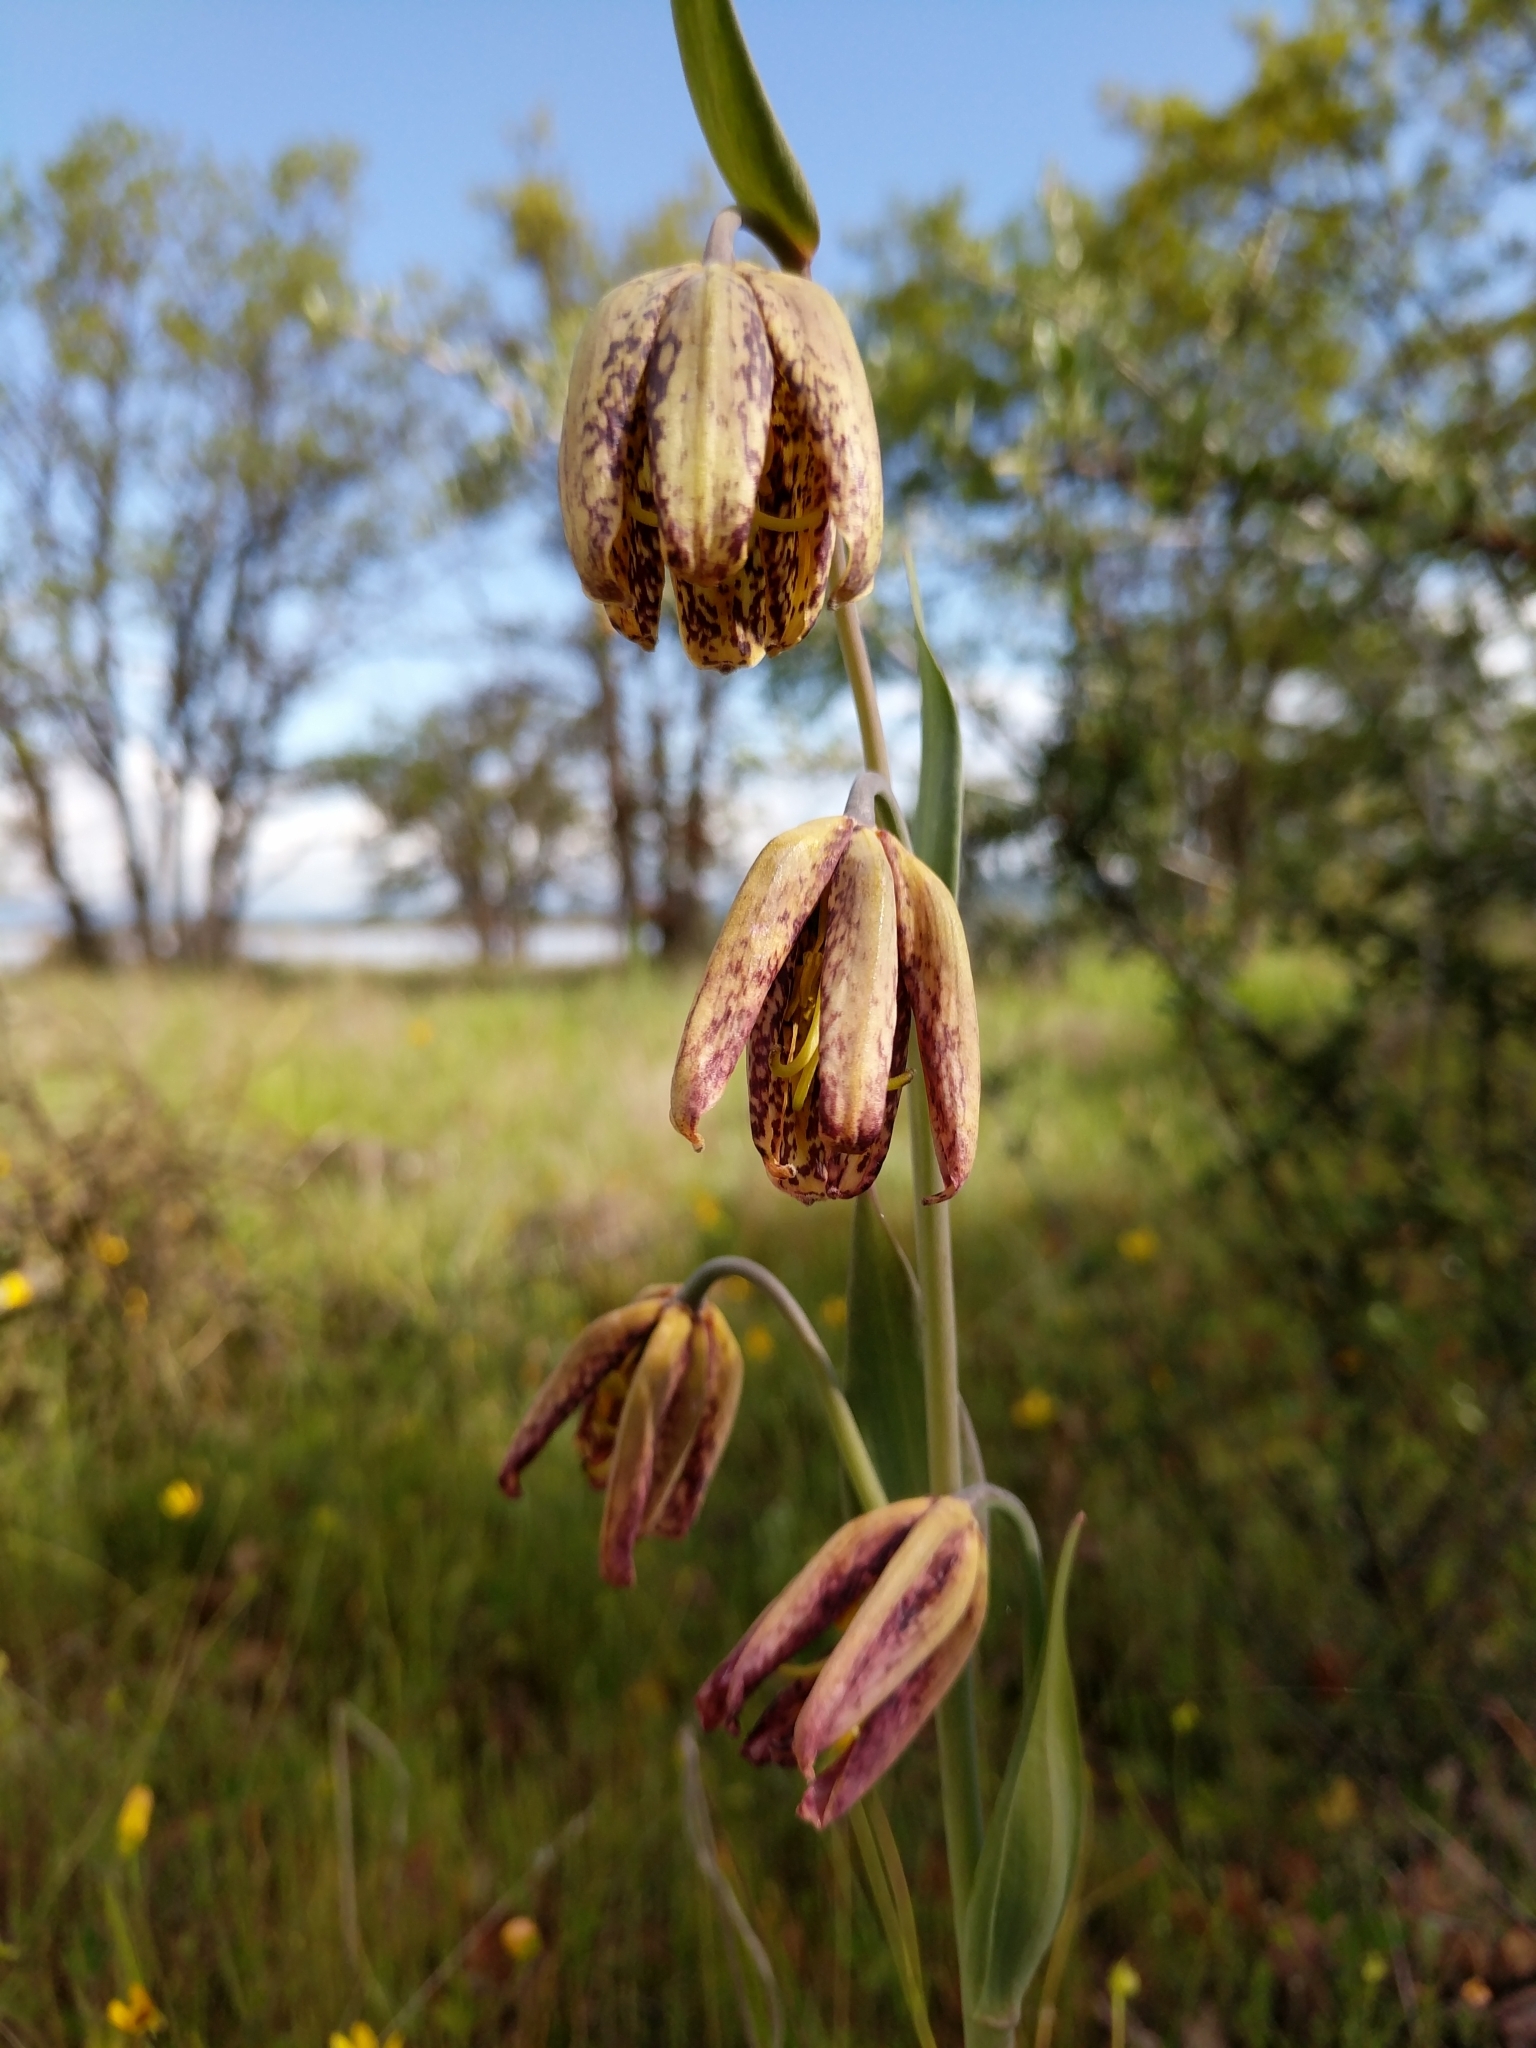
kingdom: Plantae
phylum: Tracheophyta
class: Liliopsida
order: Liliales
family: Liliaceae
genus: Fritillaria
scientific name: Fritillaria affinis
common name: Ojai fritillary
